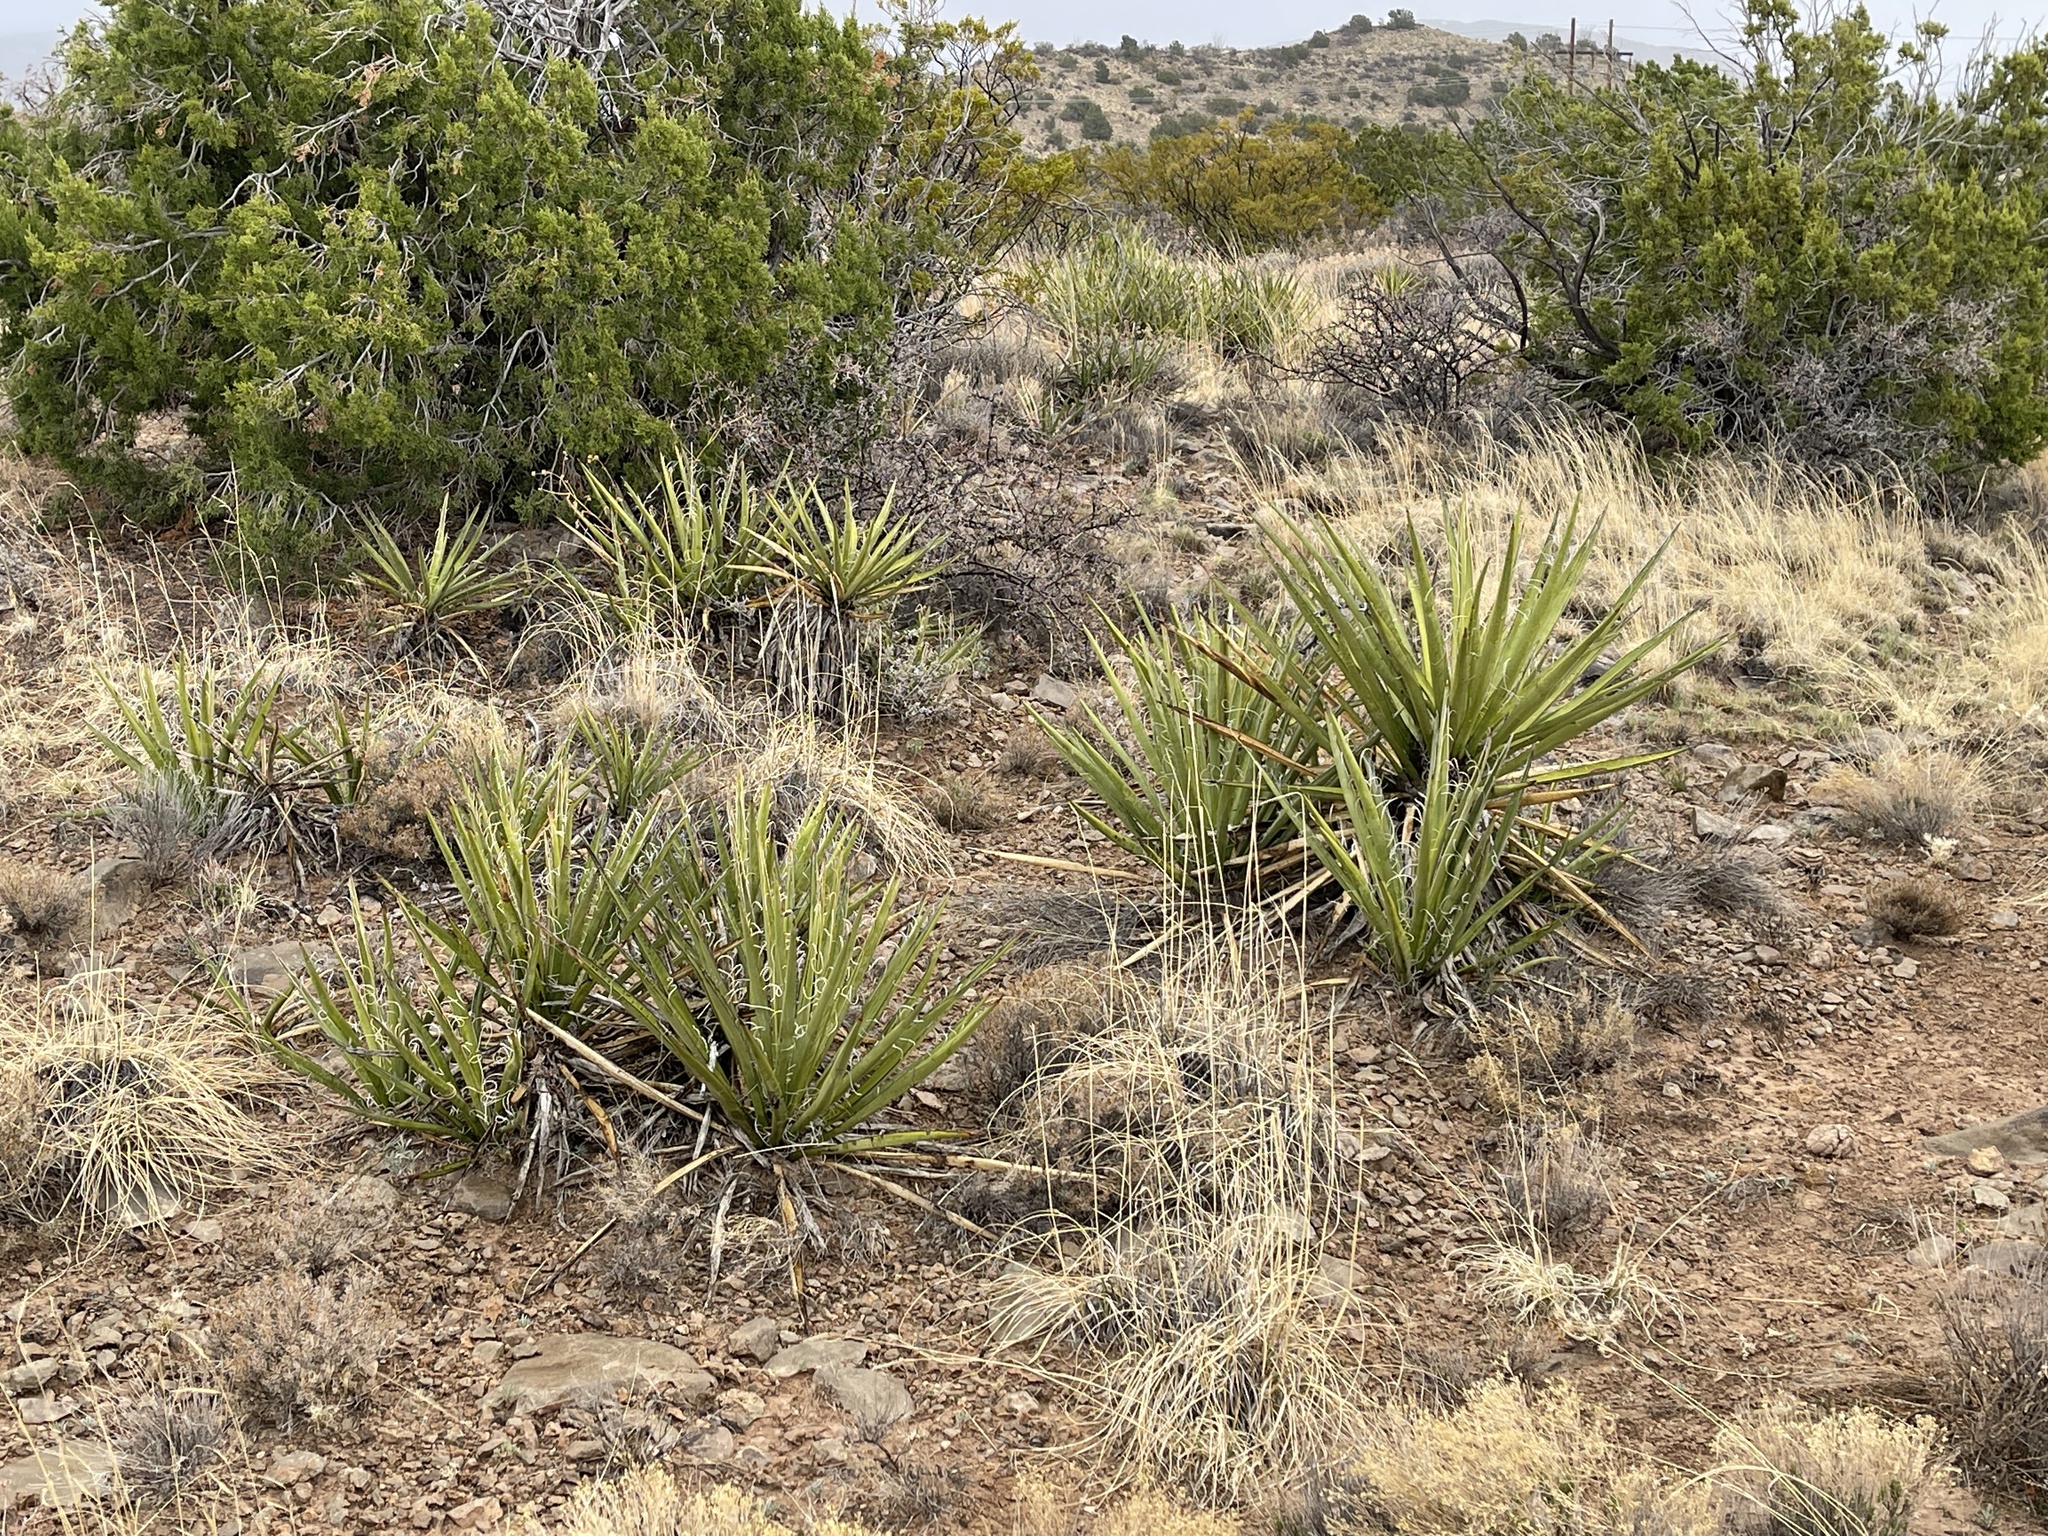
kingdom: Plantae
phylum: Tracheophyta
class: Liliopsida
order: Asparagales
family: Asparagaceae
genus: Yucca
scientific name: Yucca baccata
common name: Banana yucca
